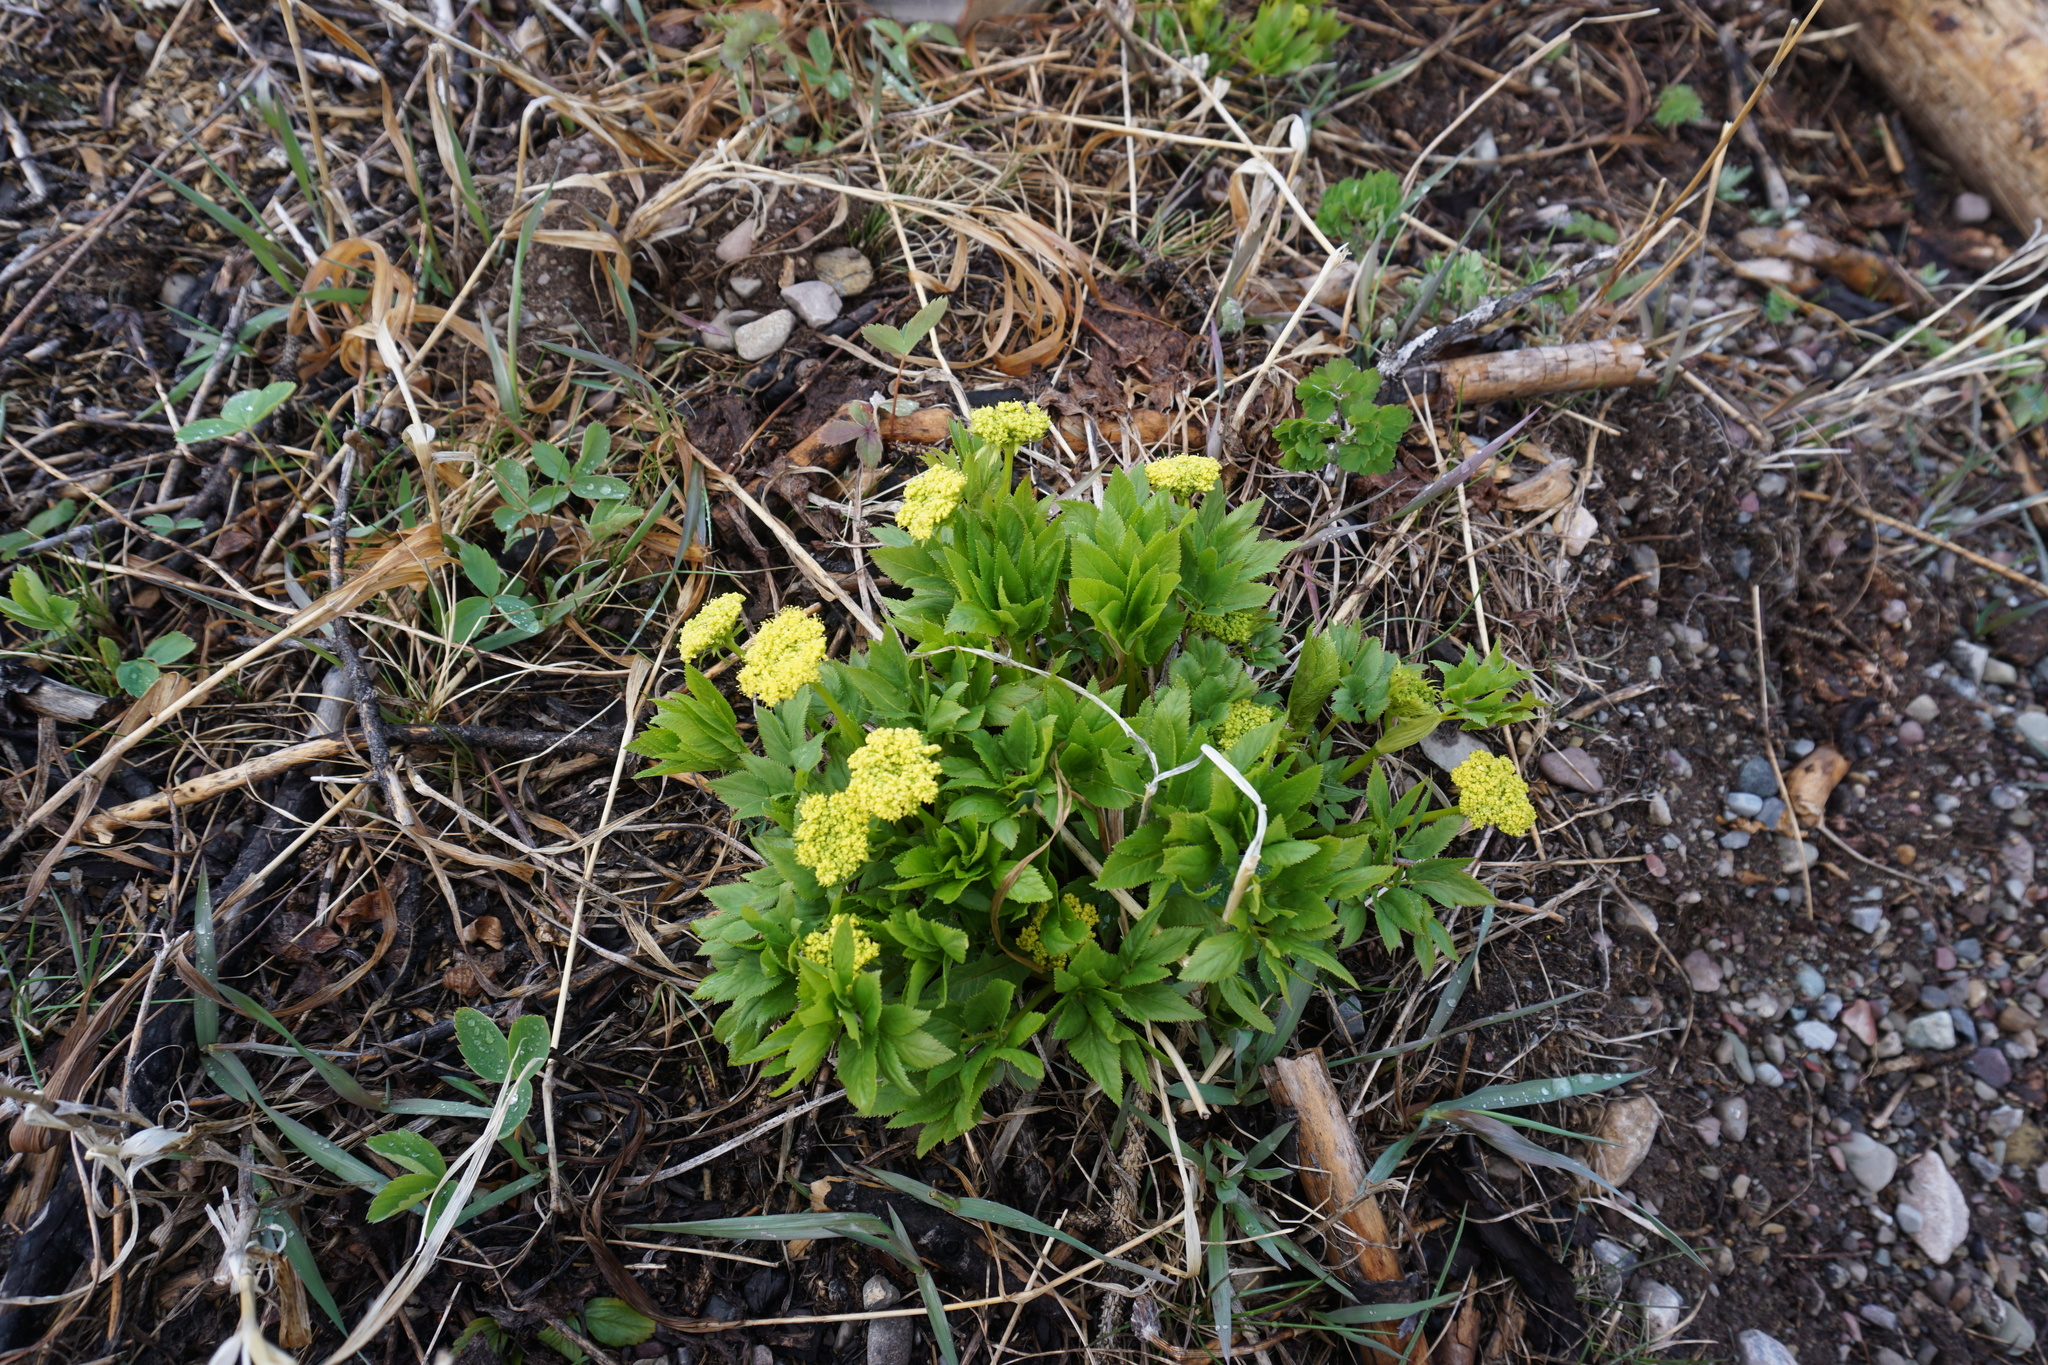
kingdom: Plantae
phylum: Tracheophyta
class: Magnoliopsida
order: Apiales
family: Apiaceae
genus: Angelica
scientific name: Angelica dawsonii
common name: Dawson's angelica
